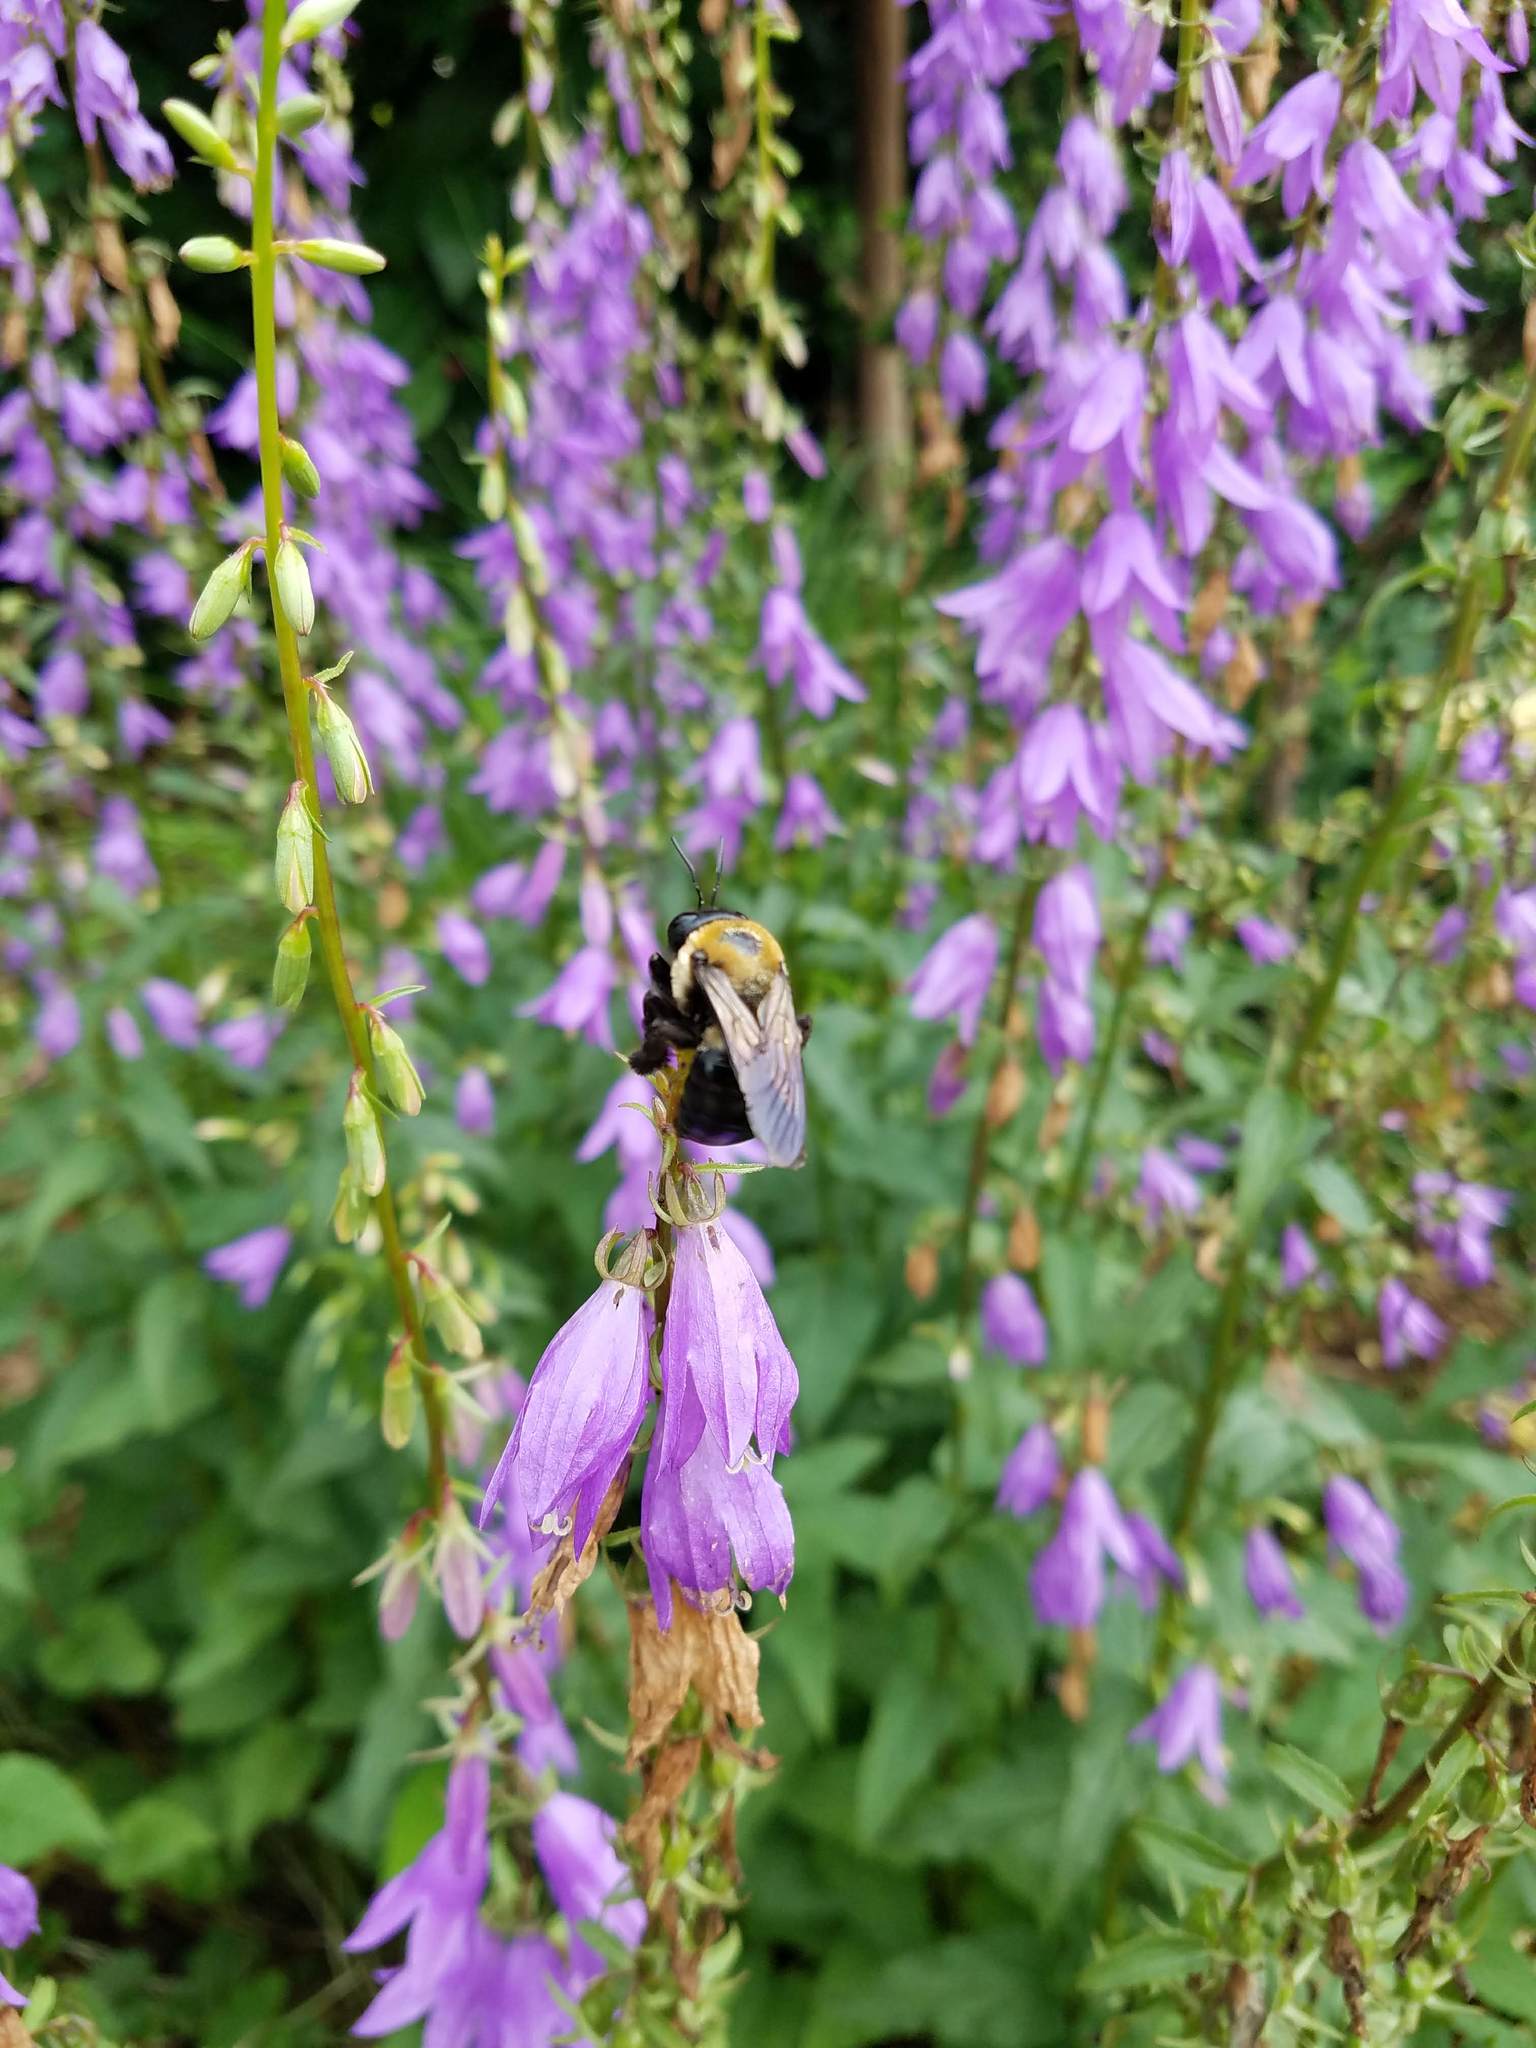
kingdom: Animalia
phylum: Arthropoda
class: Insecta
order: Hymenoptera
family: Apidae
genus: Xylocopa
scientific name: Xylocopa virginica
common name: Carpenter bee
